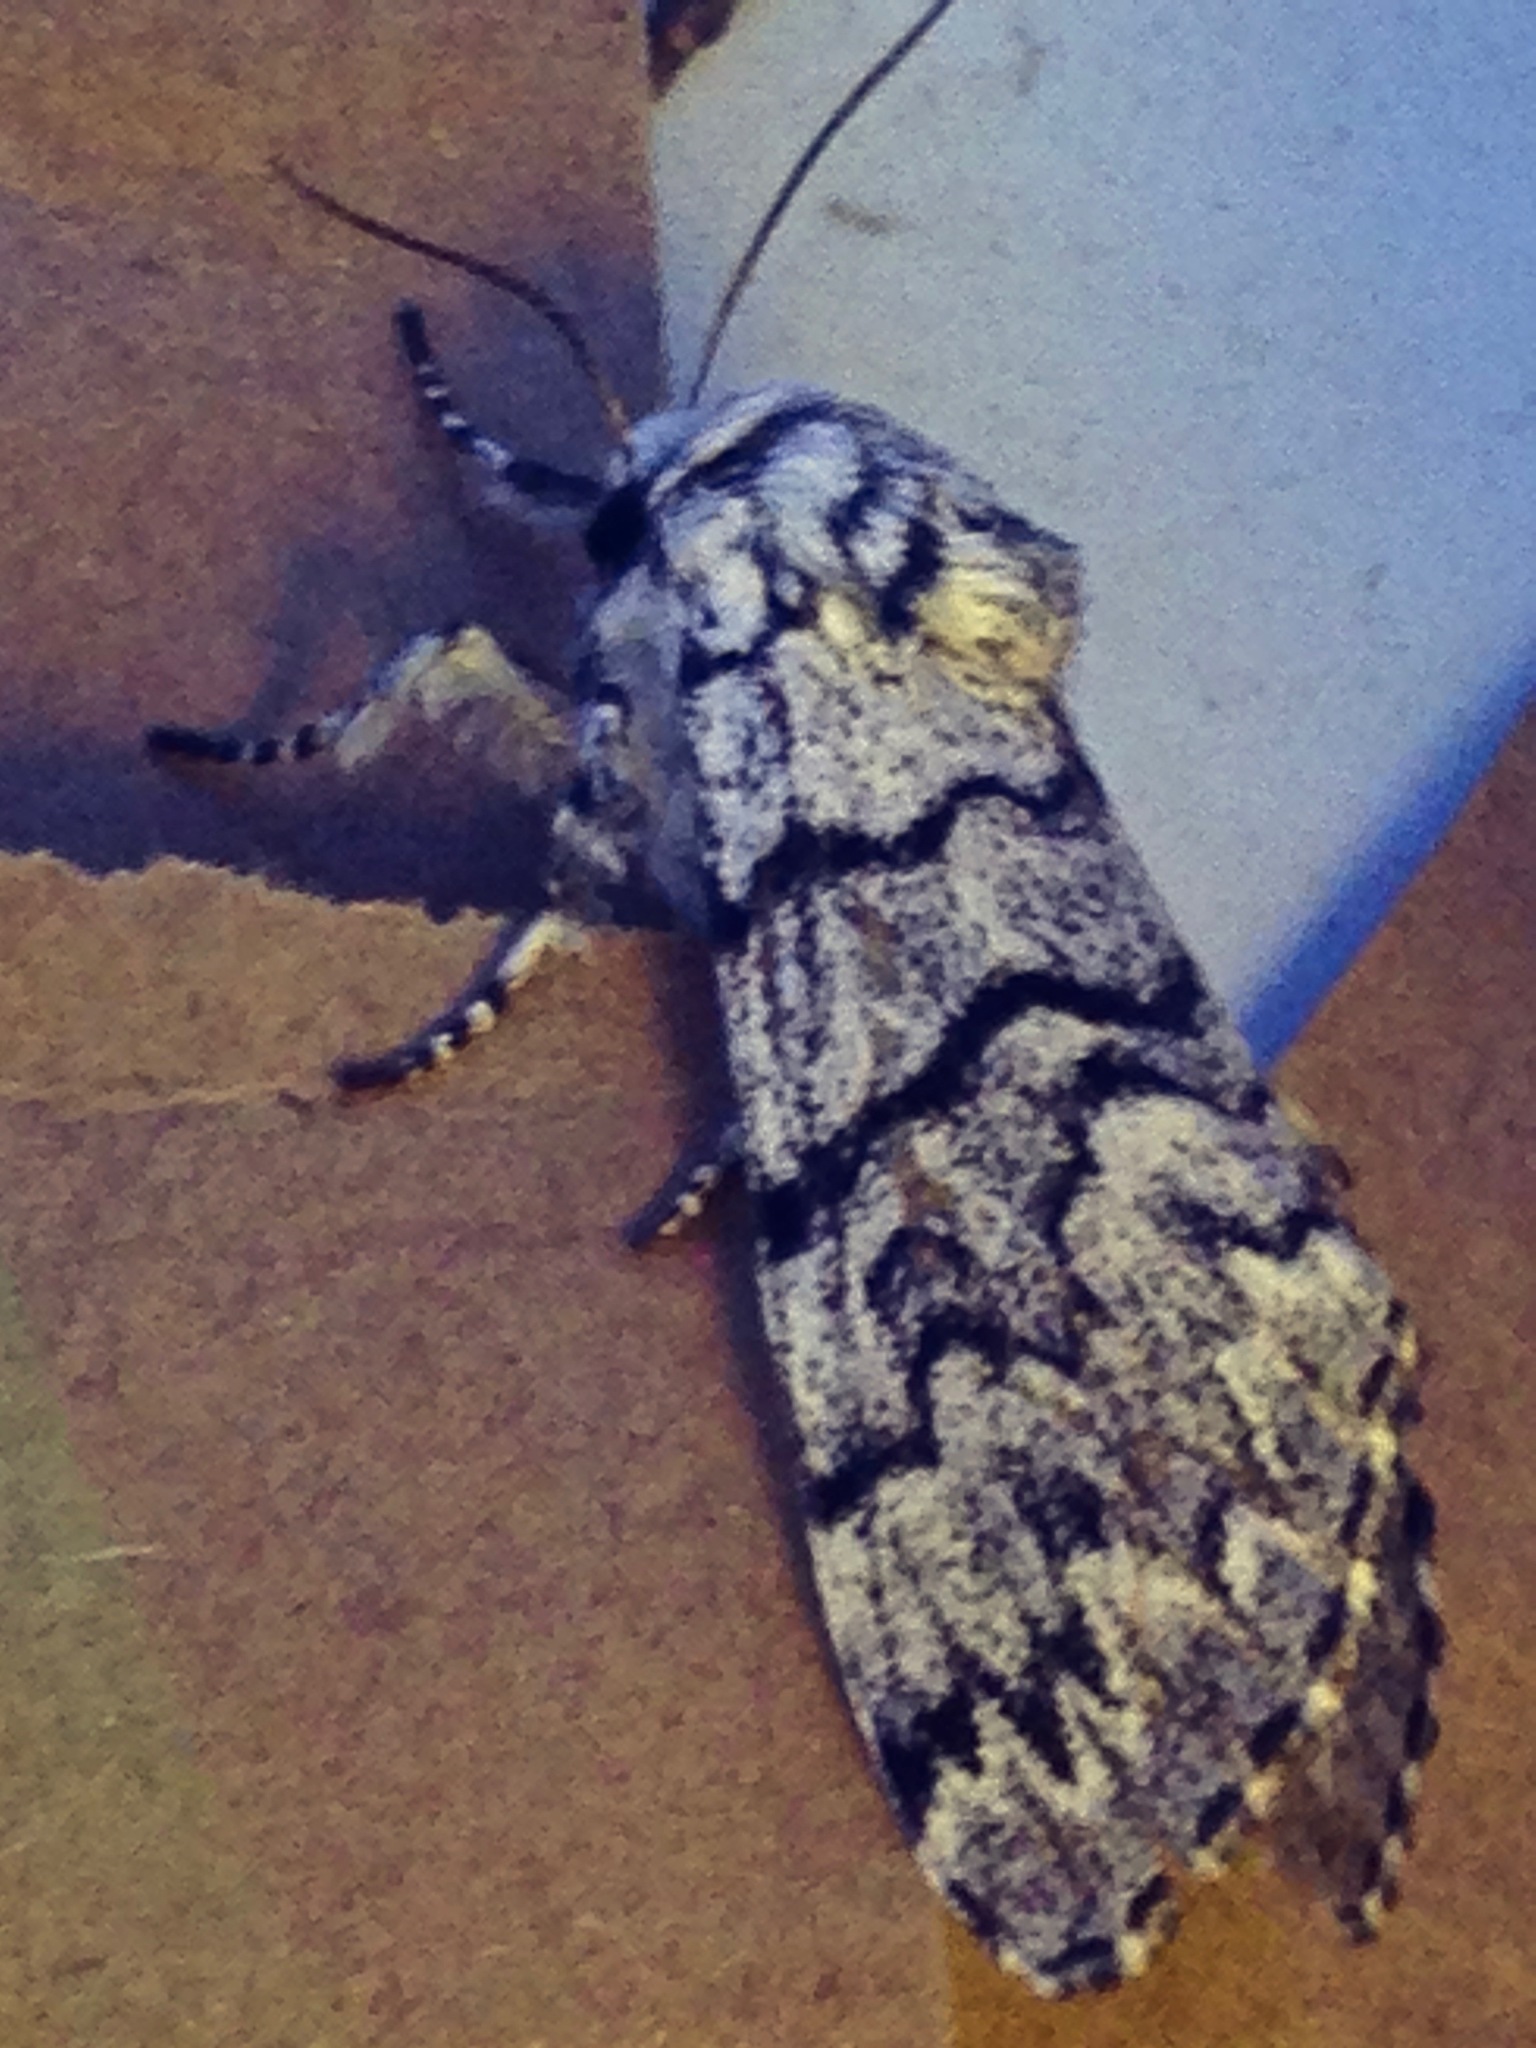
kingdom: Animalia
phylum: Arthropoda
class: Insecta
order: Lepidoptera
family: Noctuidae
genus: Panthea
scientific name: Panthea virginarius
